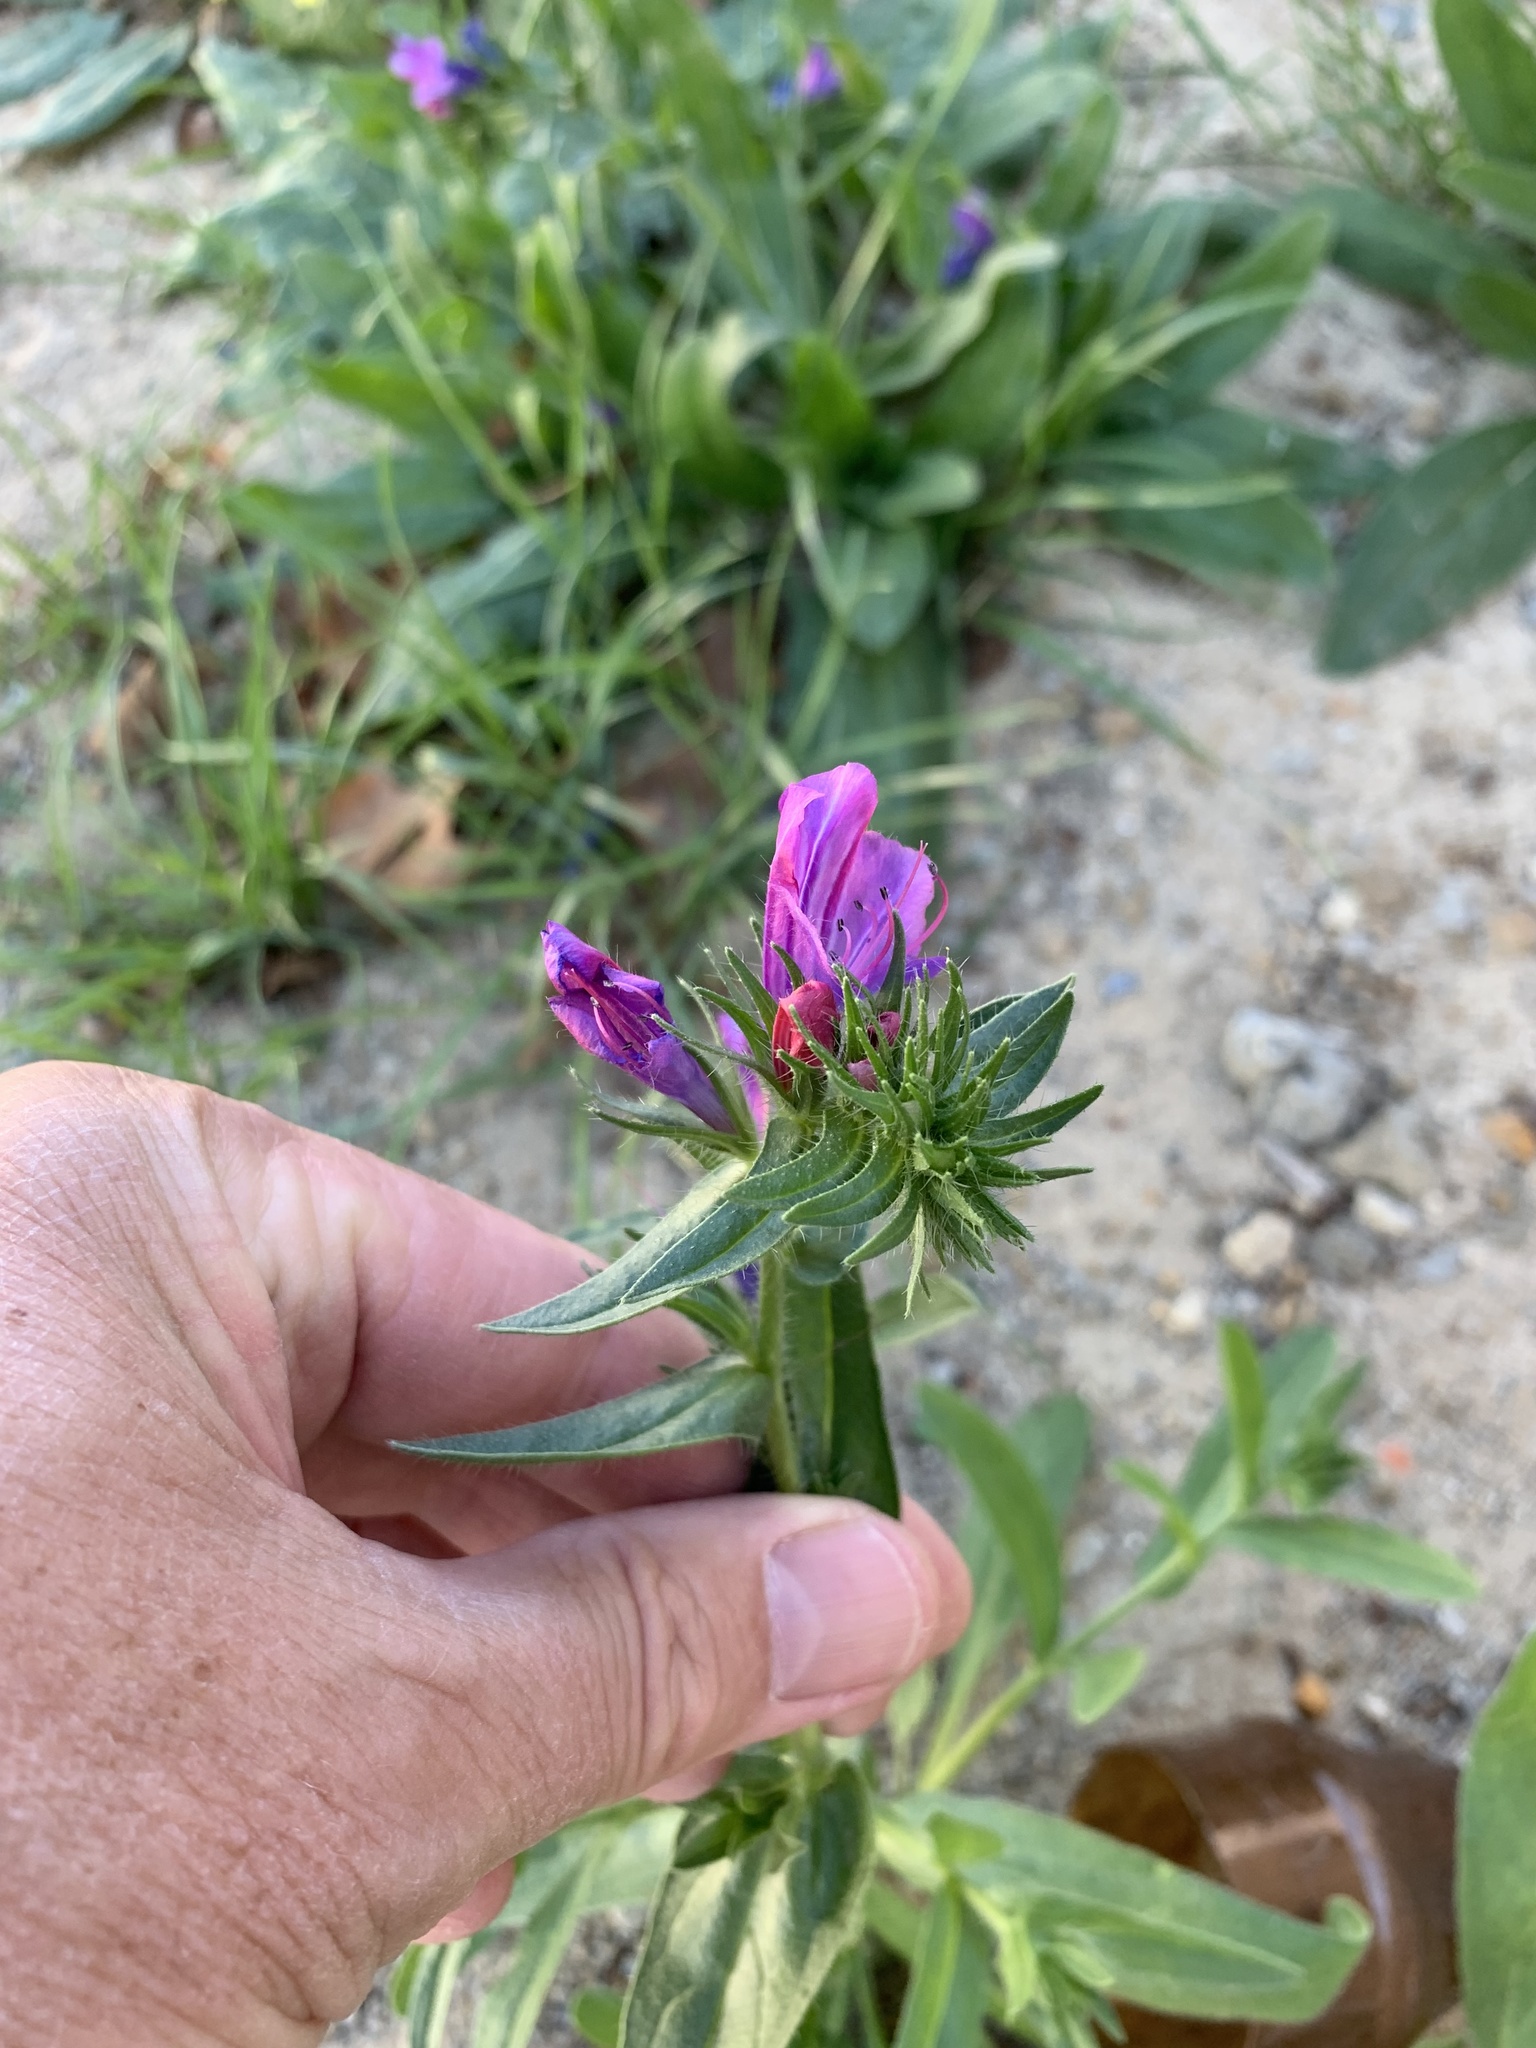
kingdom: Plantae
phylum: Tracheophyta
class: Magnoliopsida
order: Boraginales
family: Boraginaceae
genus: Echium
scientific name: Echium plantagineum
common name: Purple viper's-bugloss
